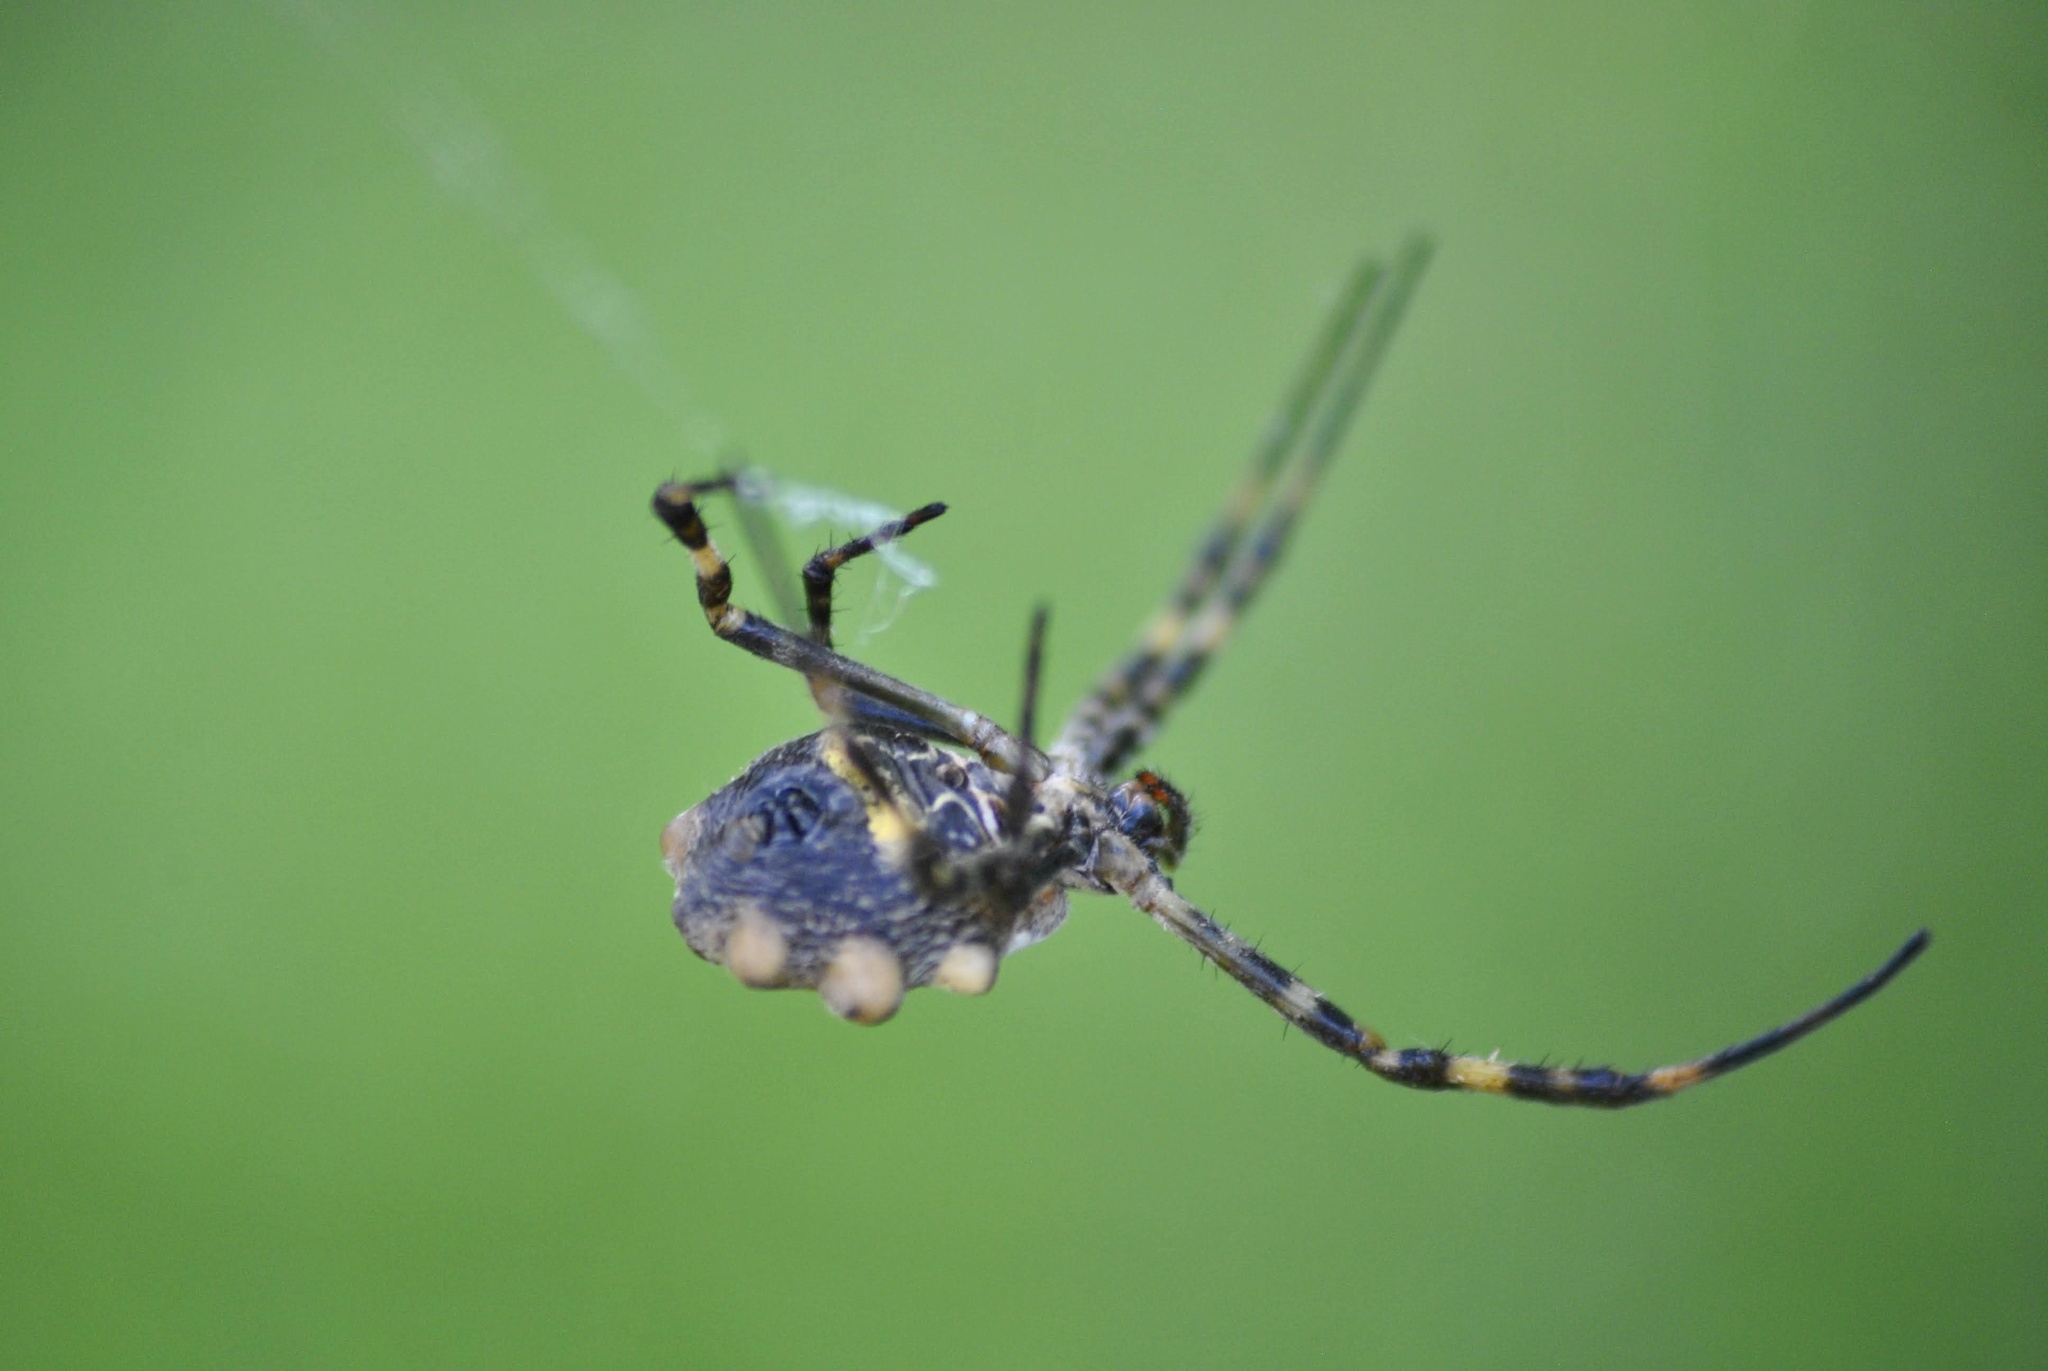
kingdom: Animalia
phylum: Arthropoda
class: Arachnida
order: Araneae
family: Araneidae
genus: Argiope
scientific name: Argiope argentata
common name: Orb weavers
